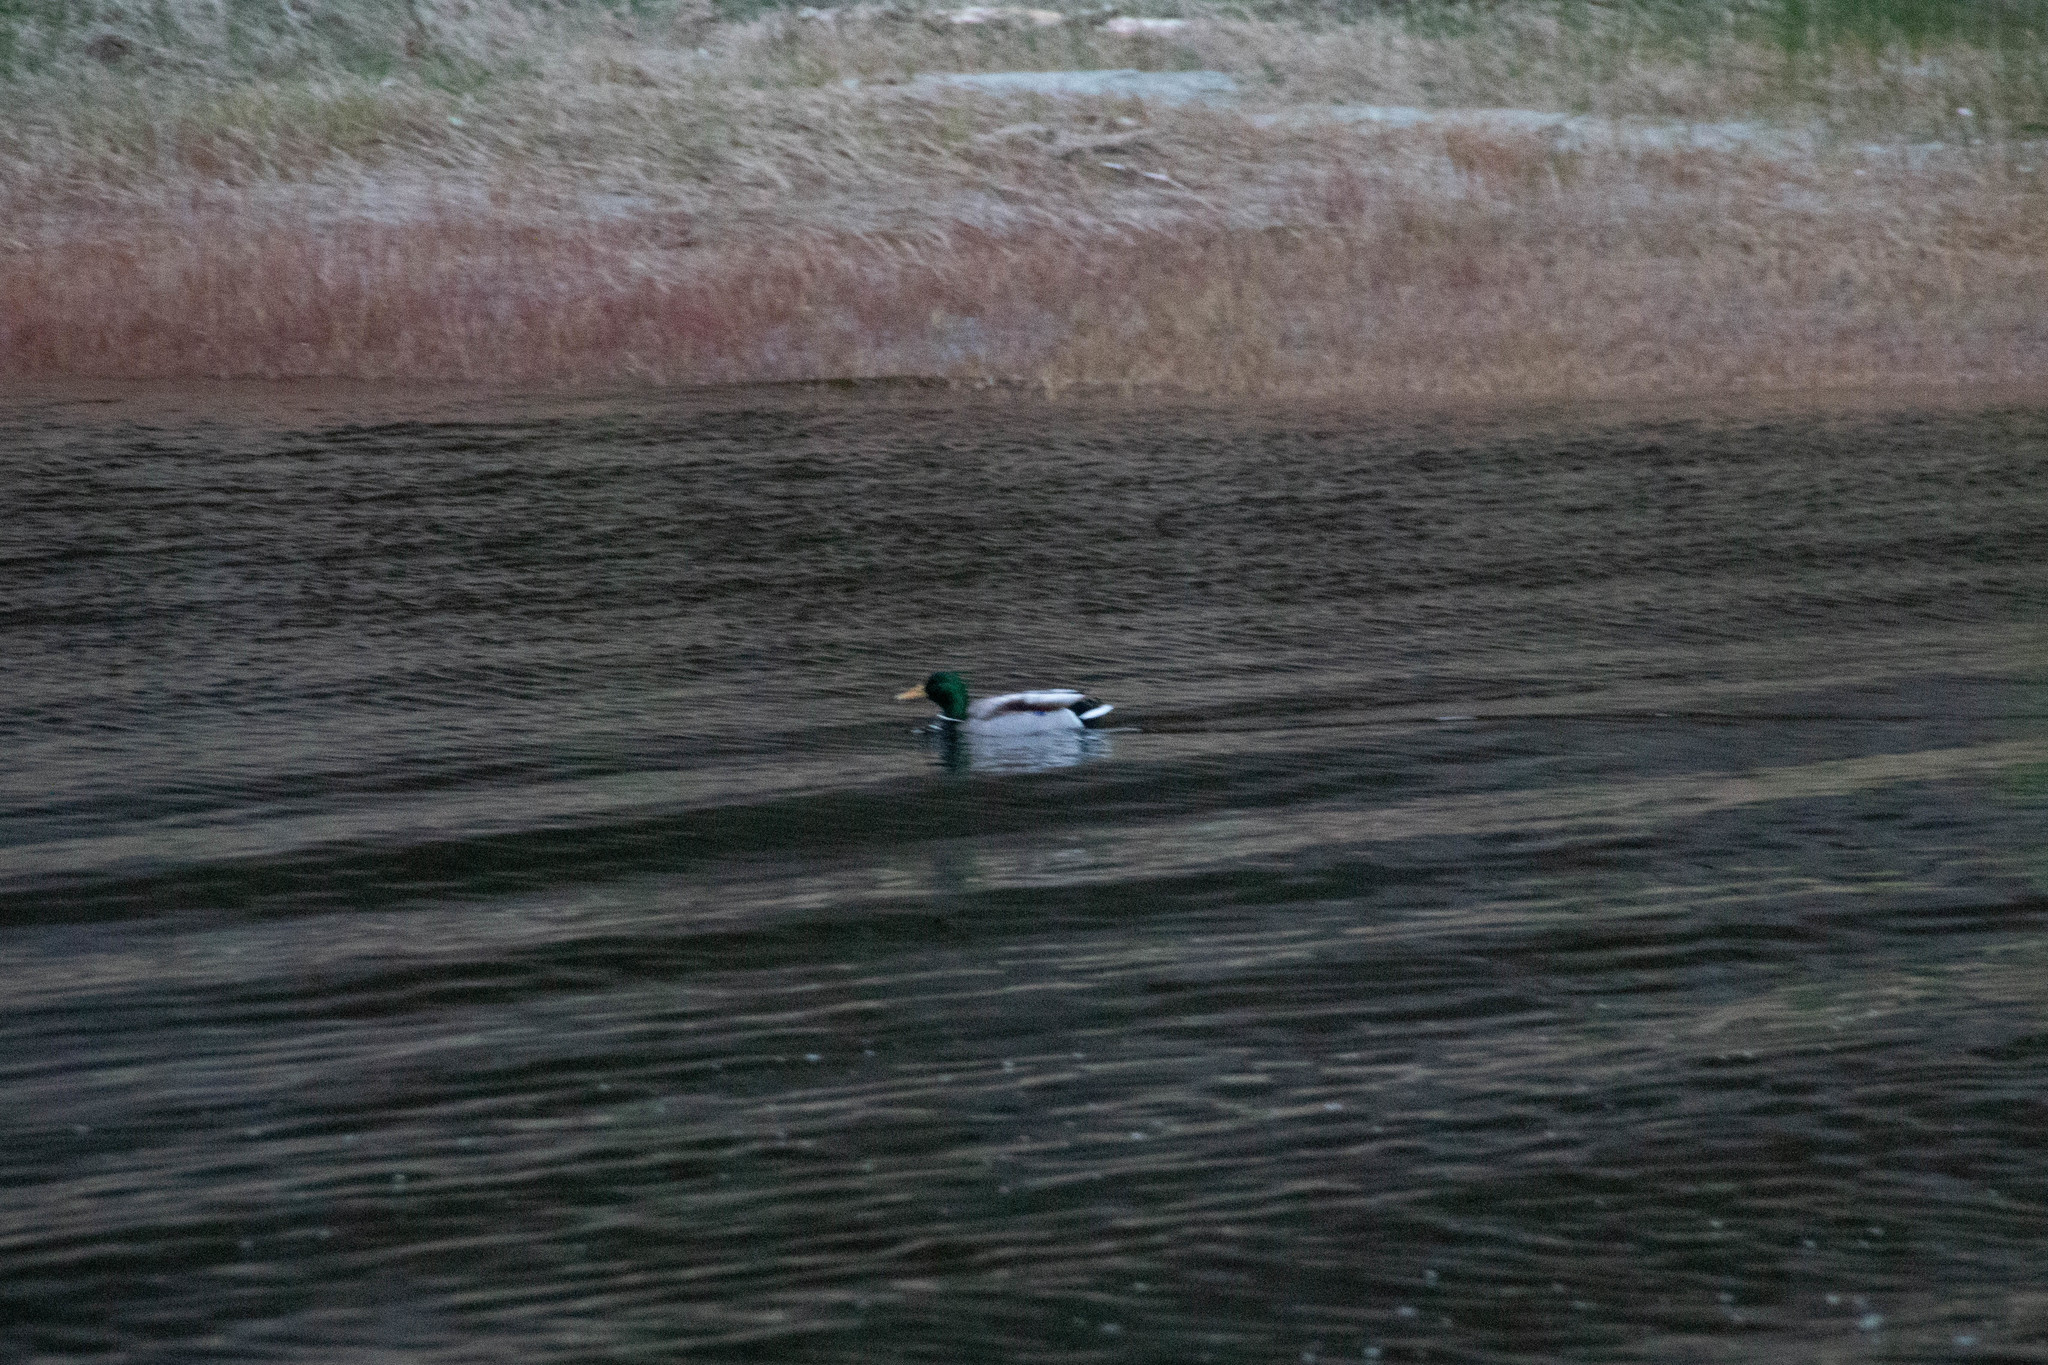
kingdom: Animalia
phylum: Chordata
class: Aves
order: Anseriformes
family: Anatidae
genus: Anas
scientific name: Anas platyrhynchos
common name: Mallard
